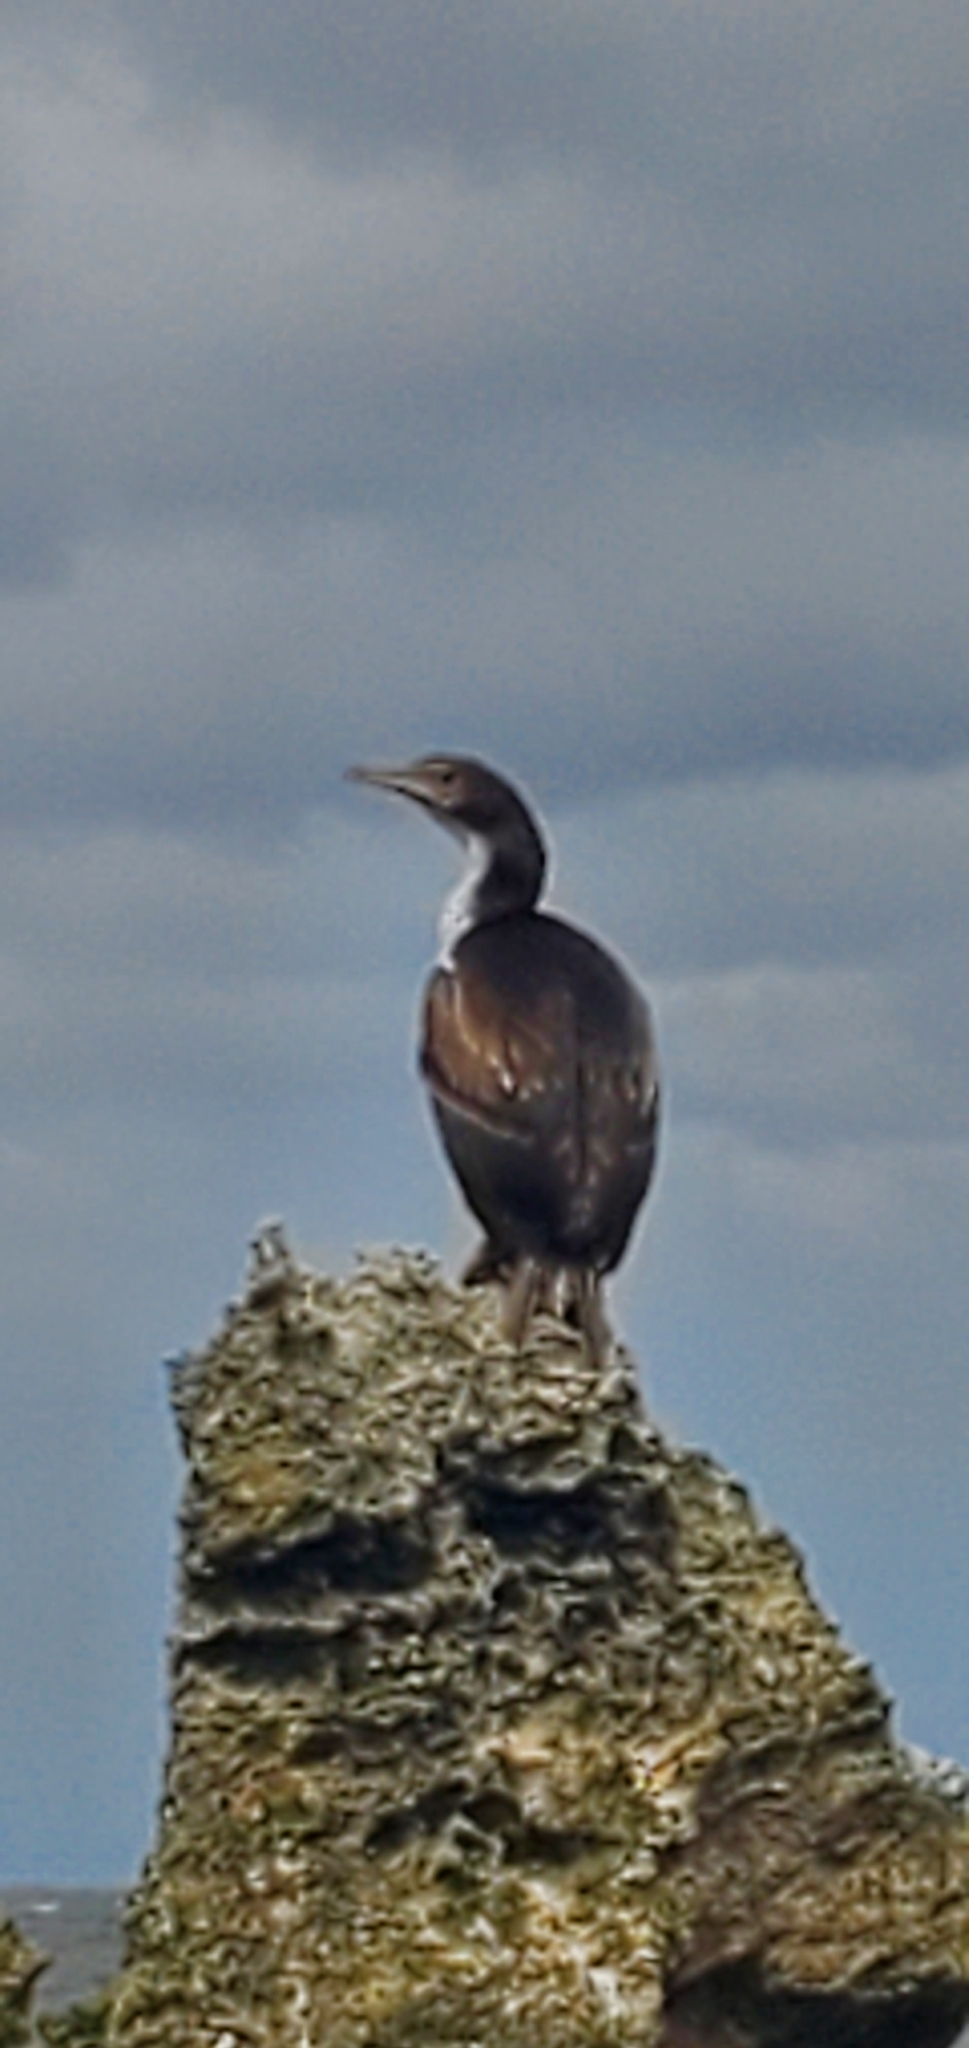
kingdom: Animalia
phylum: Chordata
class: Aves
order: Suliformes
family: Phalacrocoracidae
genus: Leucocarbo
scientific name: Leucocarbo onslowi
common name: Chatham shag
